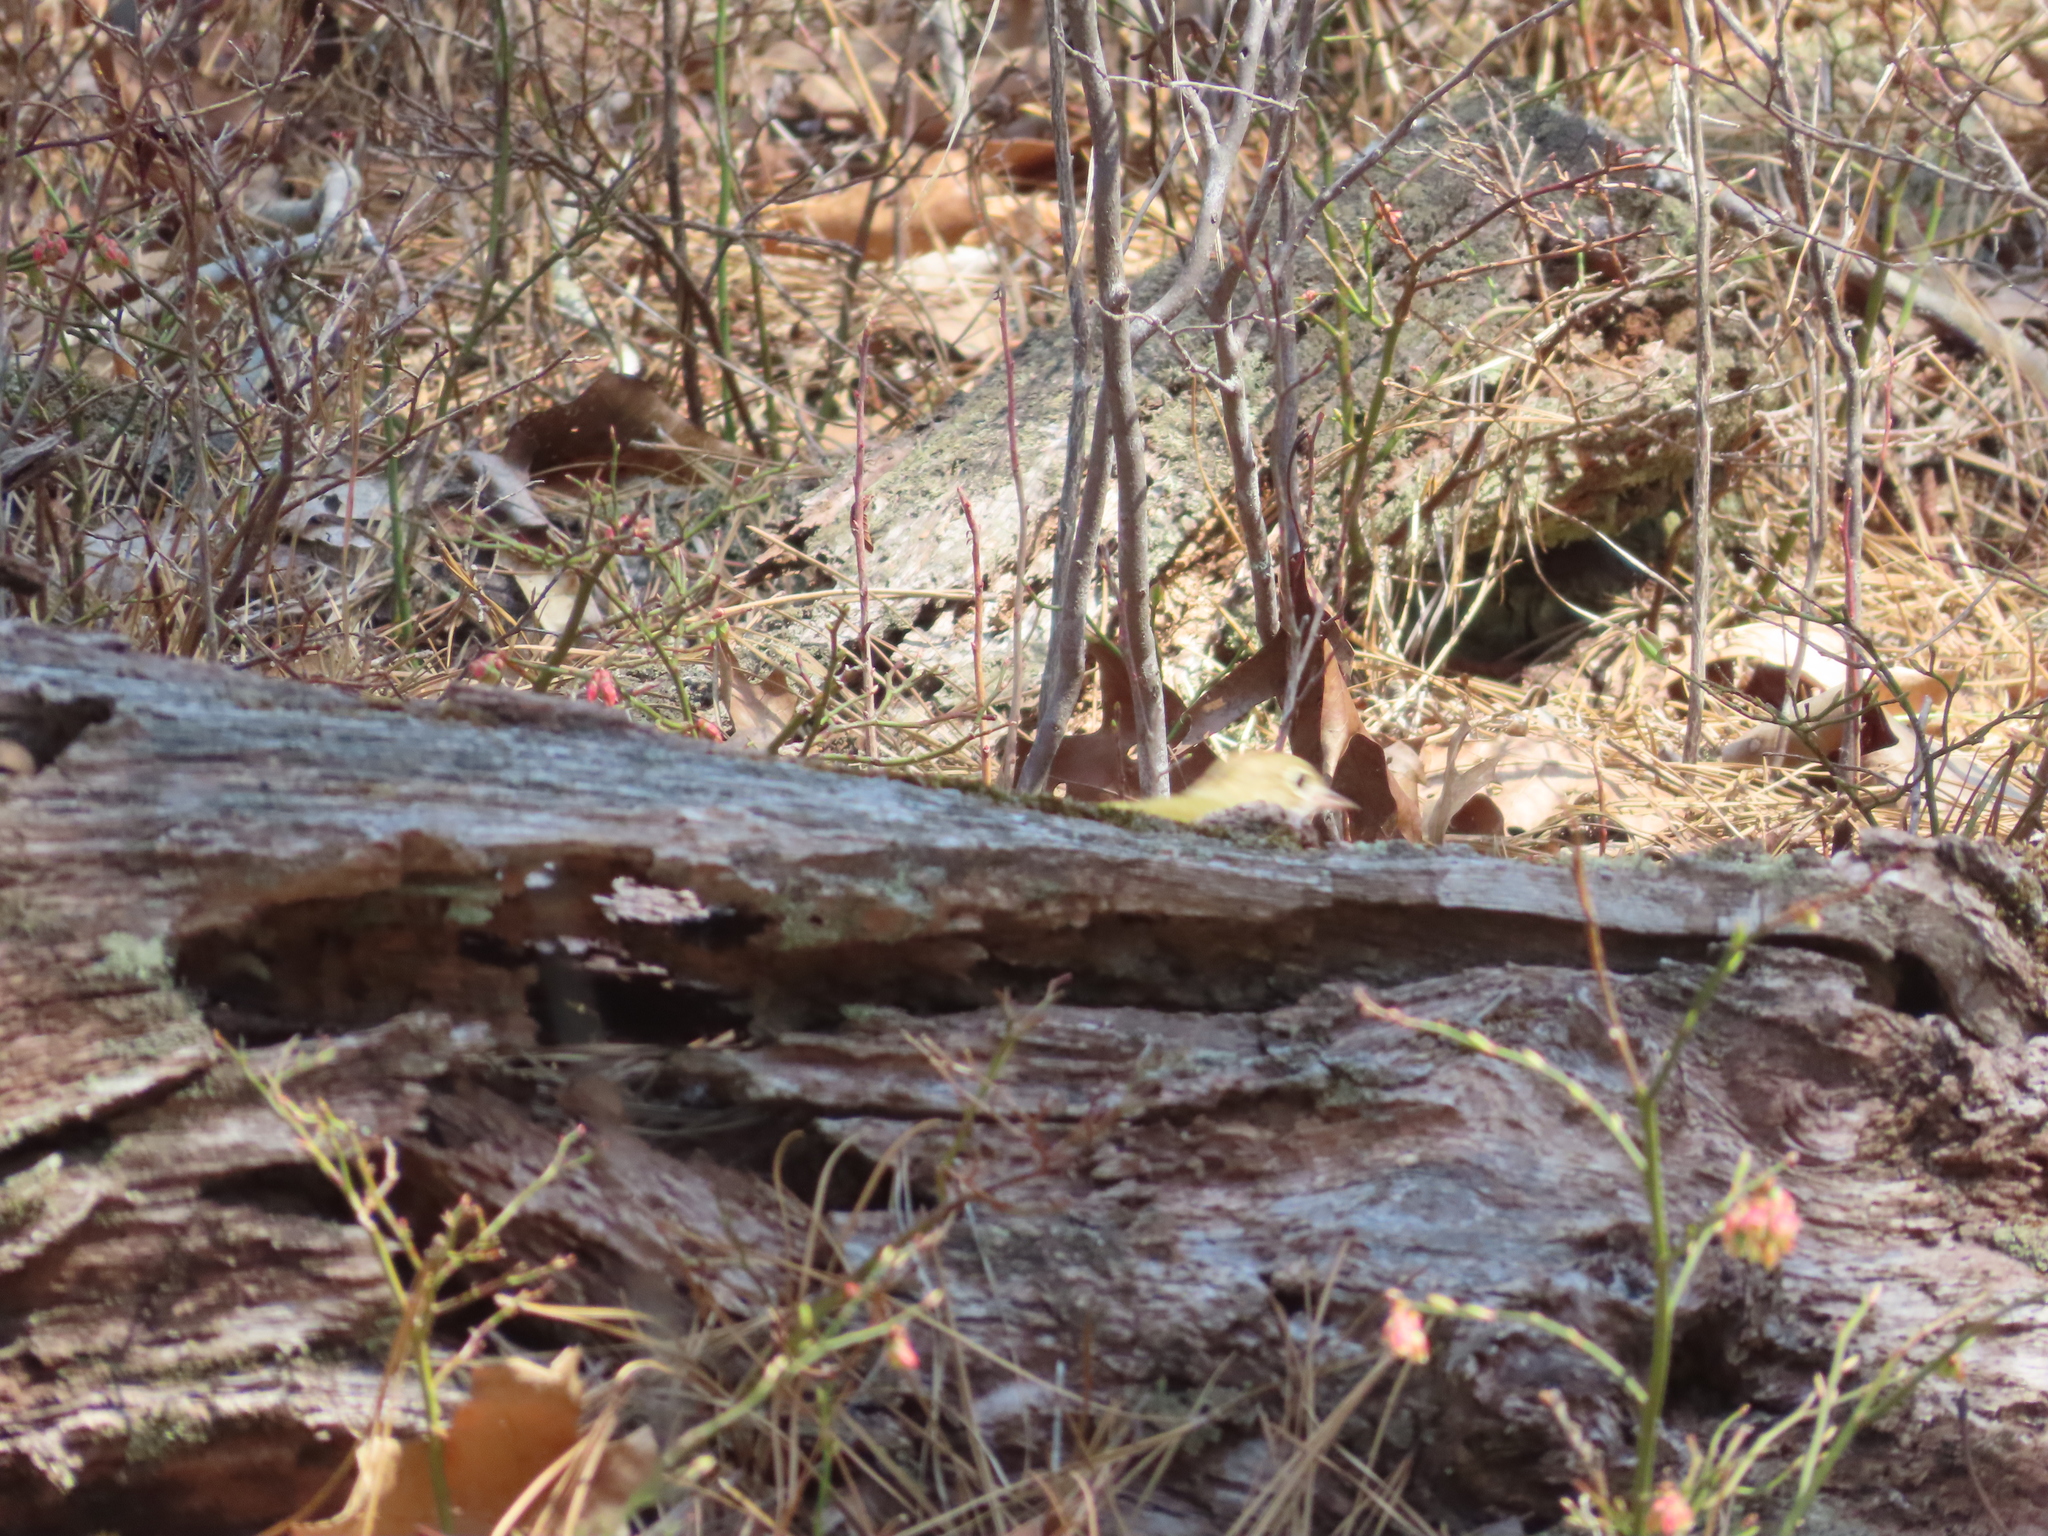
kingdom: Animalia
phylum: Chordata
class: Aves
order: Passeriformes
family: Parulidae
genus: Seiurus
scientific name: Seiurus aurocapilla
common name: Ovenbird
